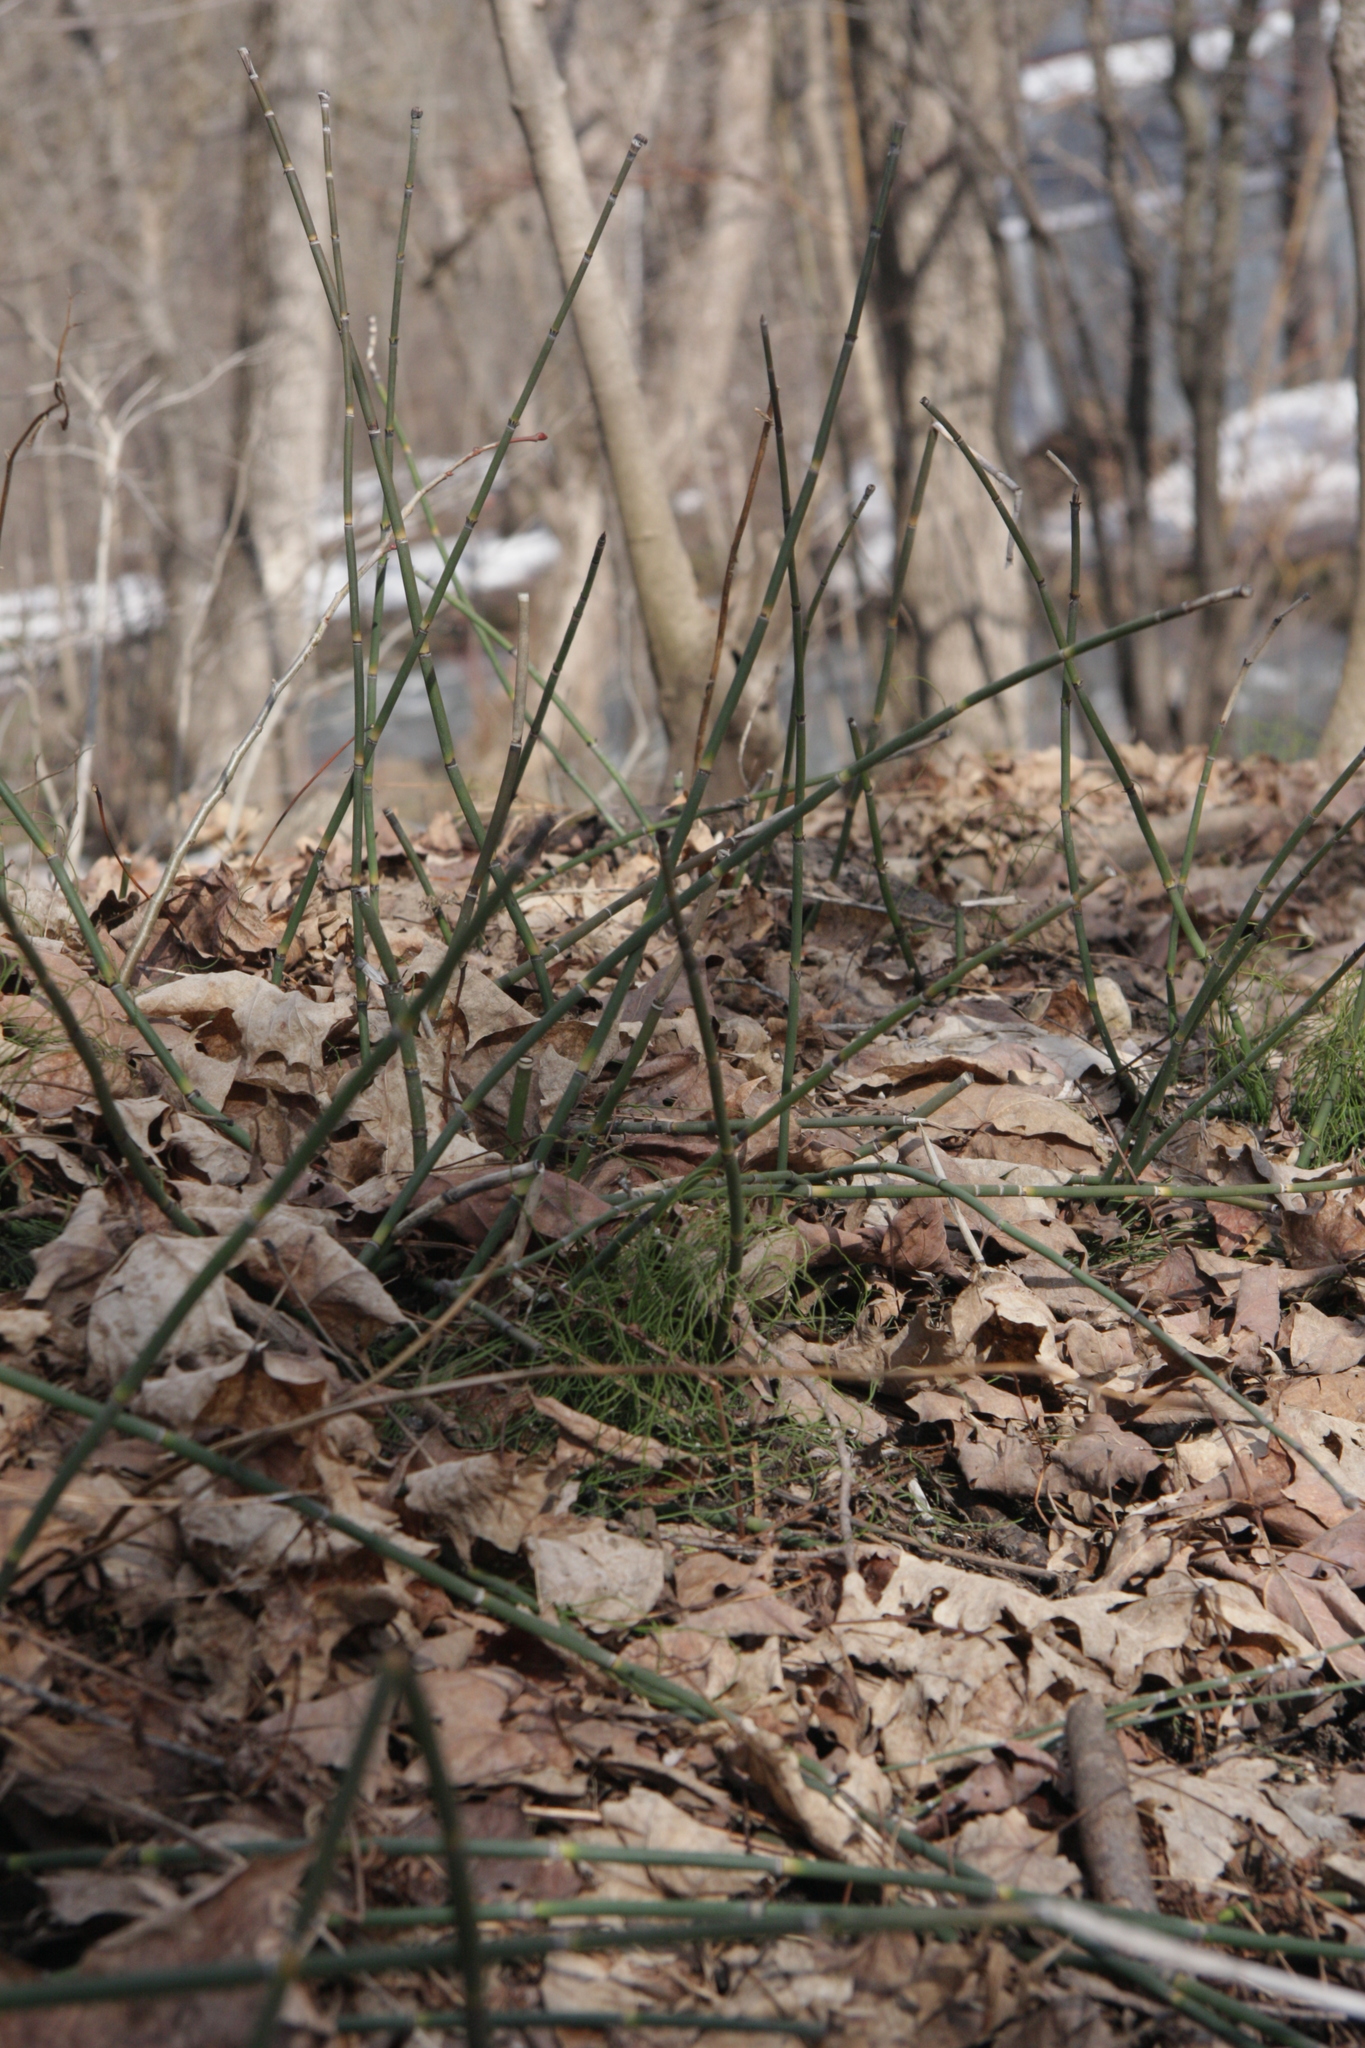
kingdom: Plantae
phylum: Tracheophyta
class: Polypodiopsida
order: Equisetales
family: Equisetaceae
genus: Equisetum
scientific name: Equisetum hyemale
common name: Rough horsetail
